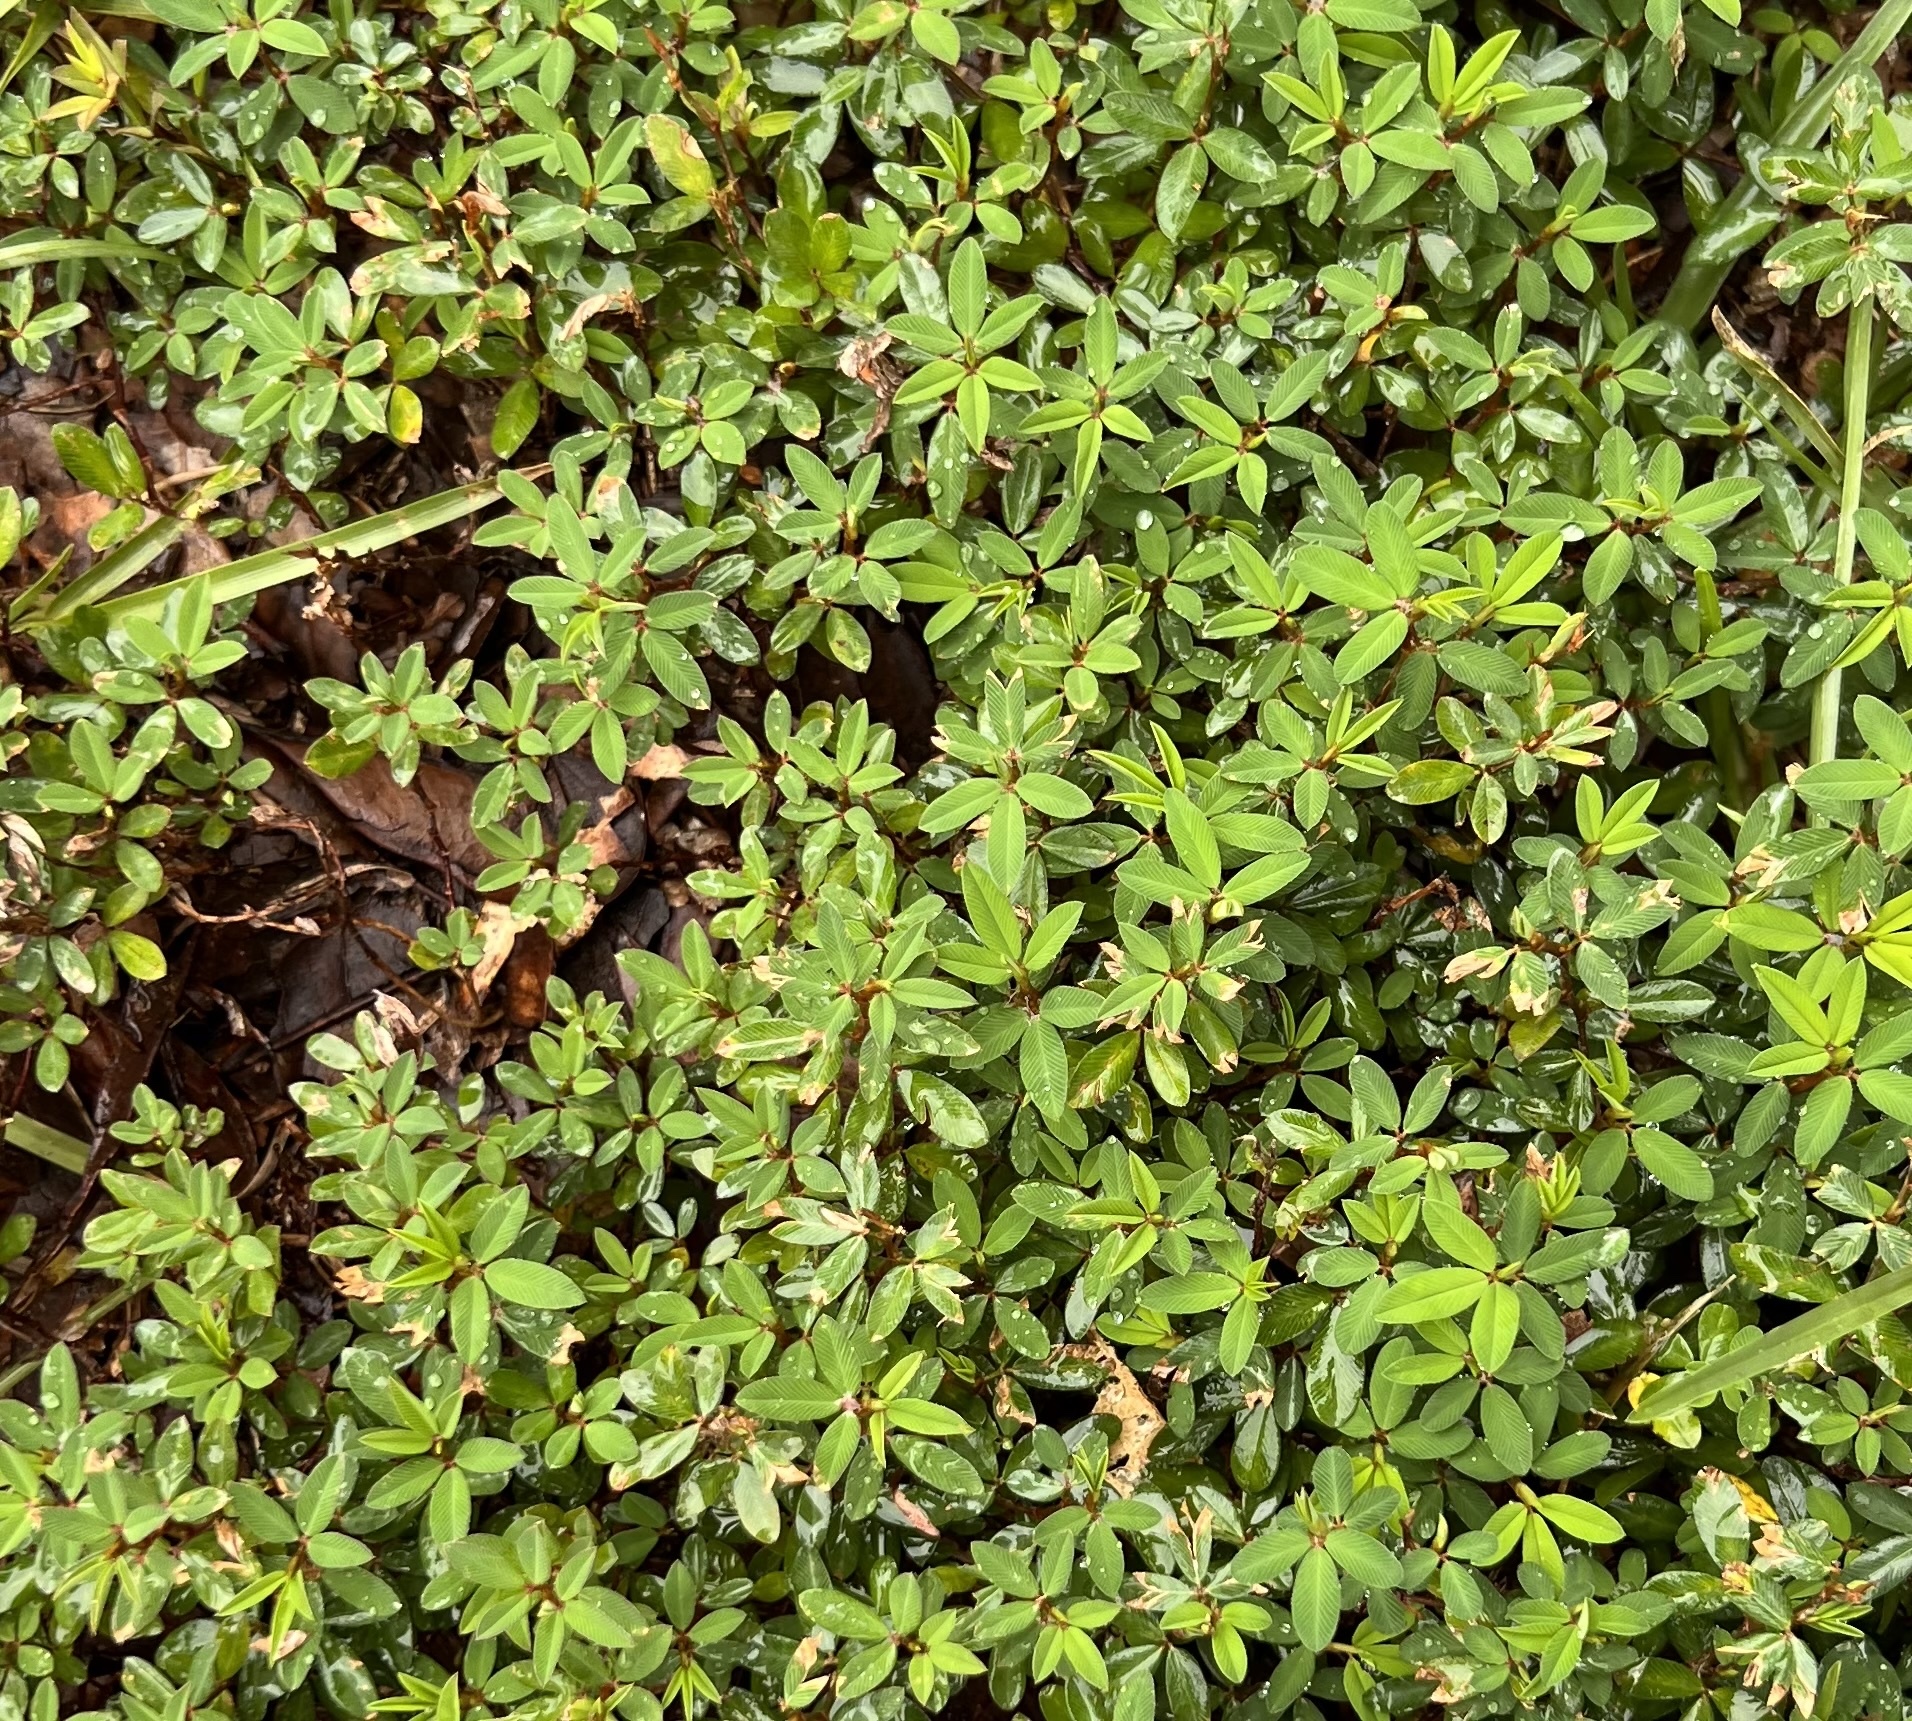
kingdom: Plantae
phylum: Tracheophyta
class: Magnoliopsida
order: Fabales
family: Fabaceae
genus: Kummerowia
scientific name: Kummerowia striata
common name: Japanese clover
